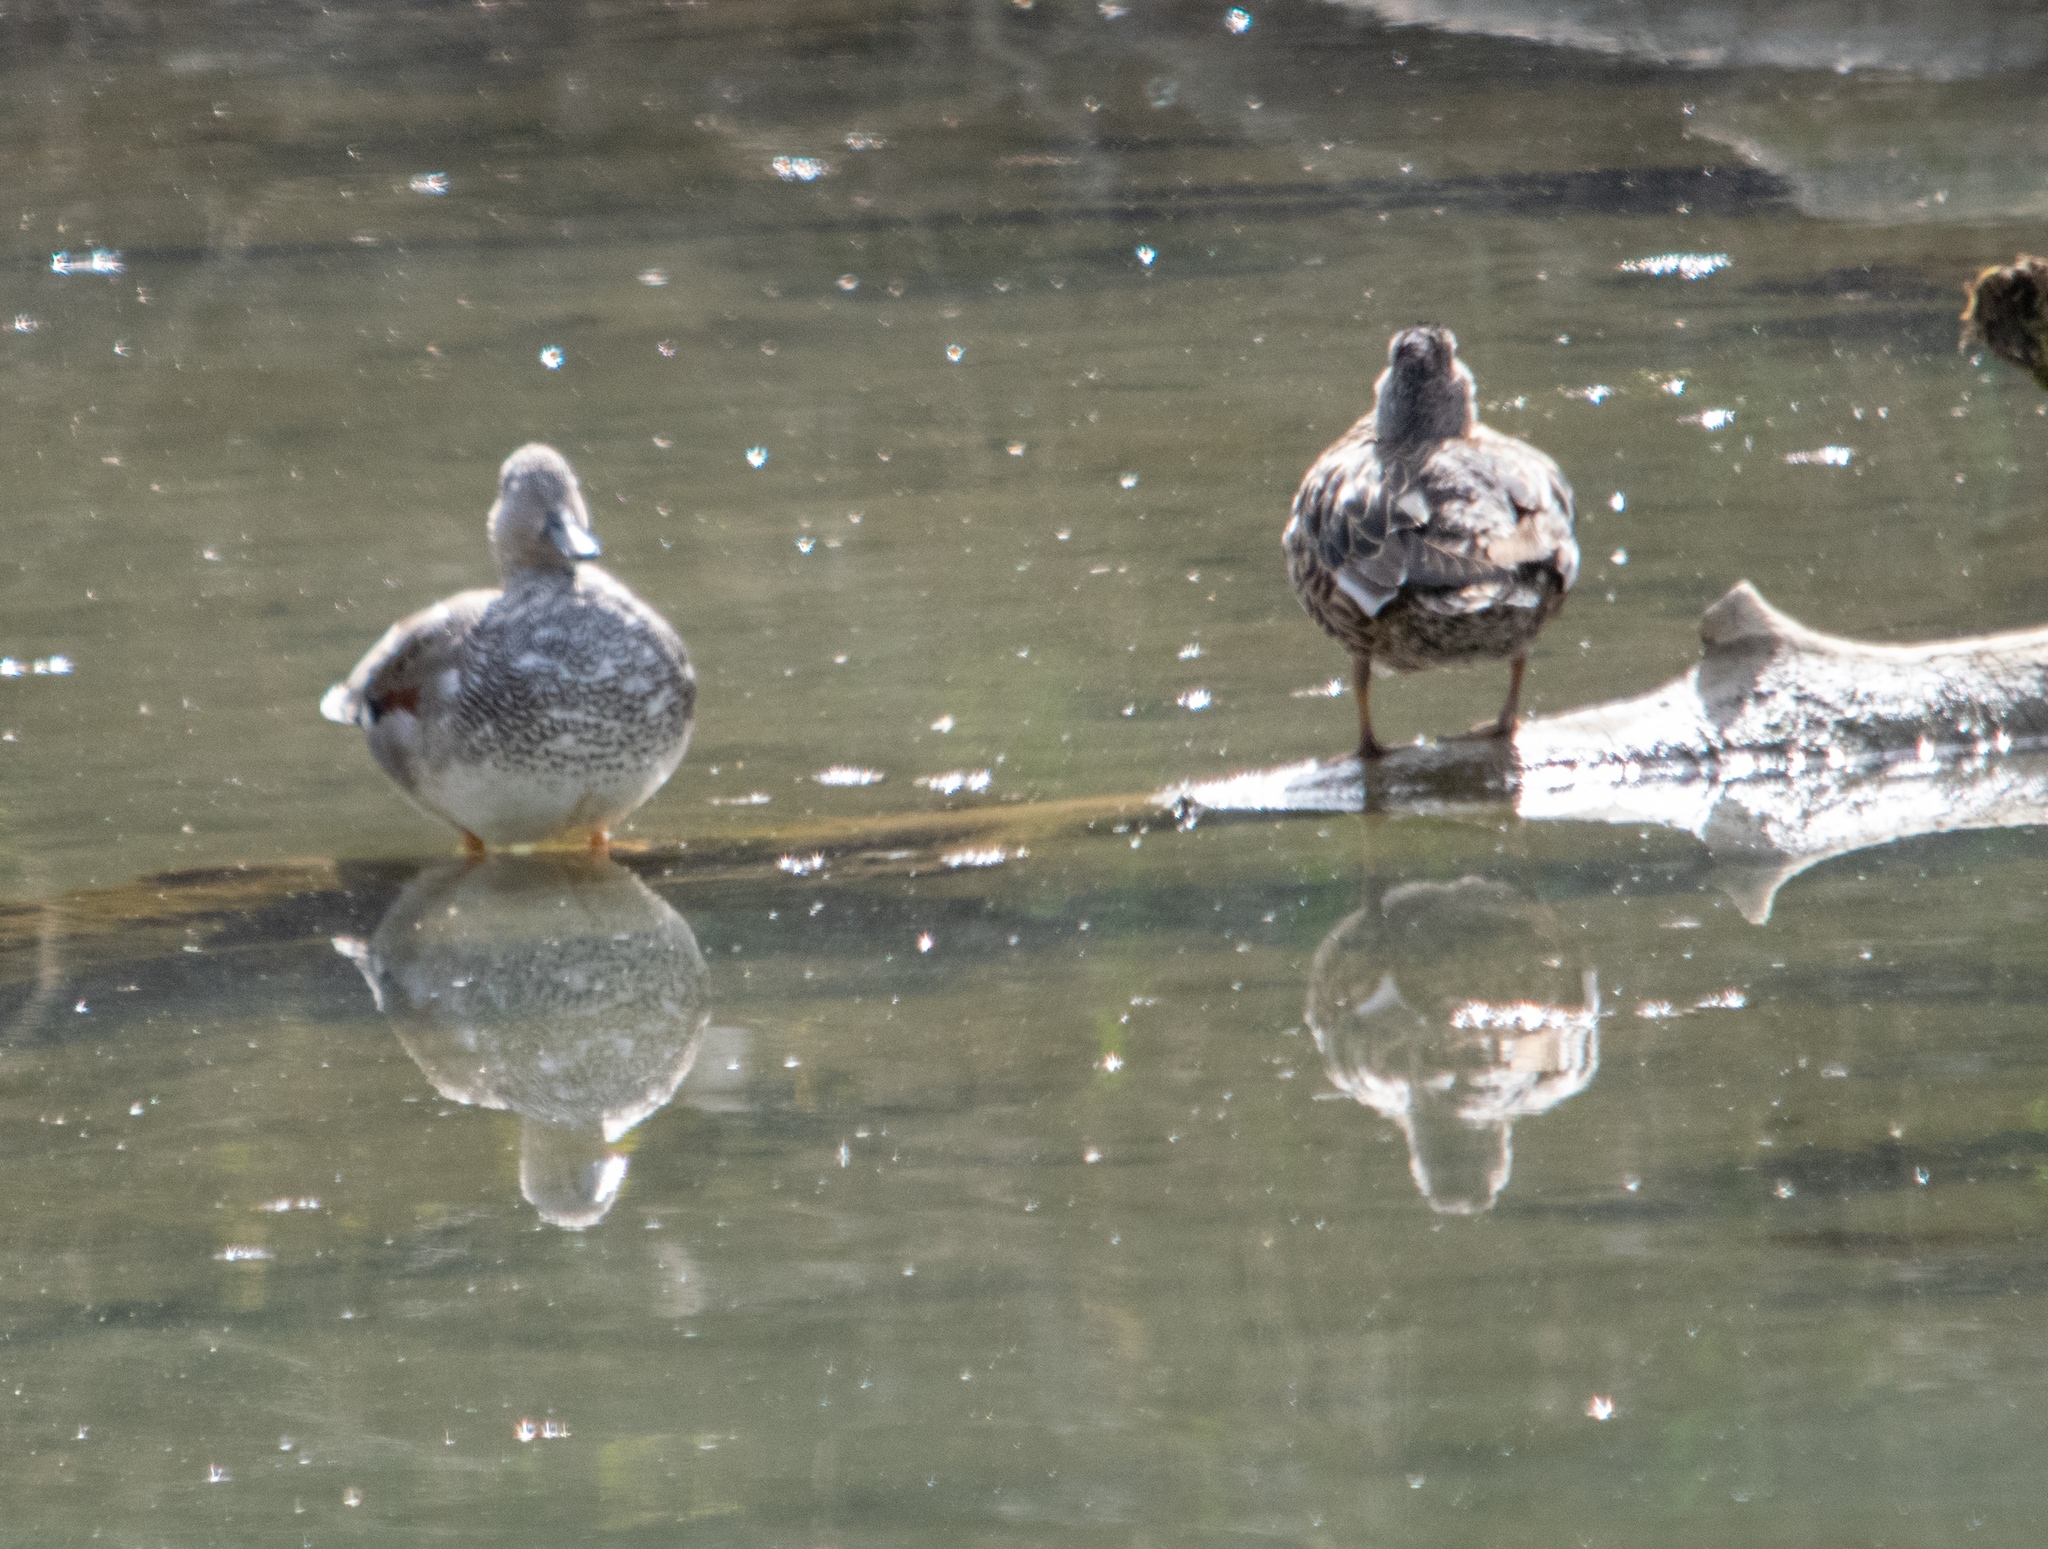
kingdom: Animalia
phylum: Chordata
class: Aves
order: Anseriformes
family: Anatidae
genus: Mareca
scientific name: Mareca strepera
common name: Gadwall
